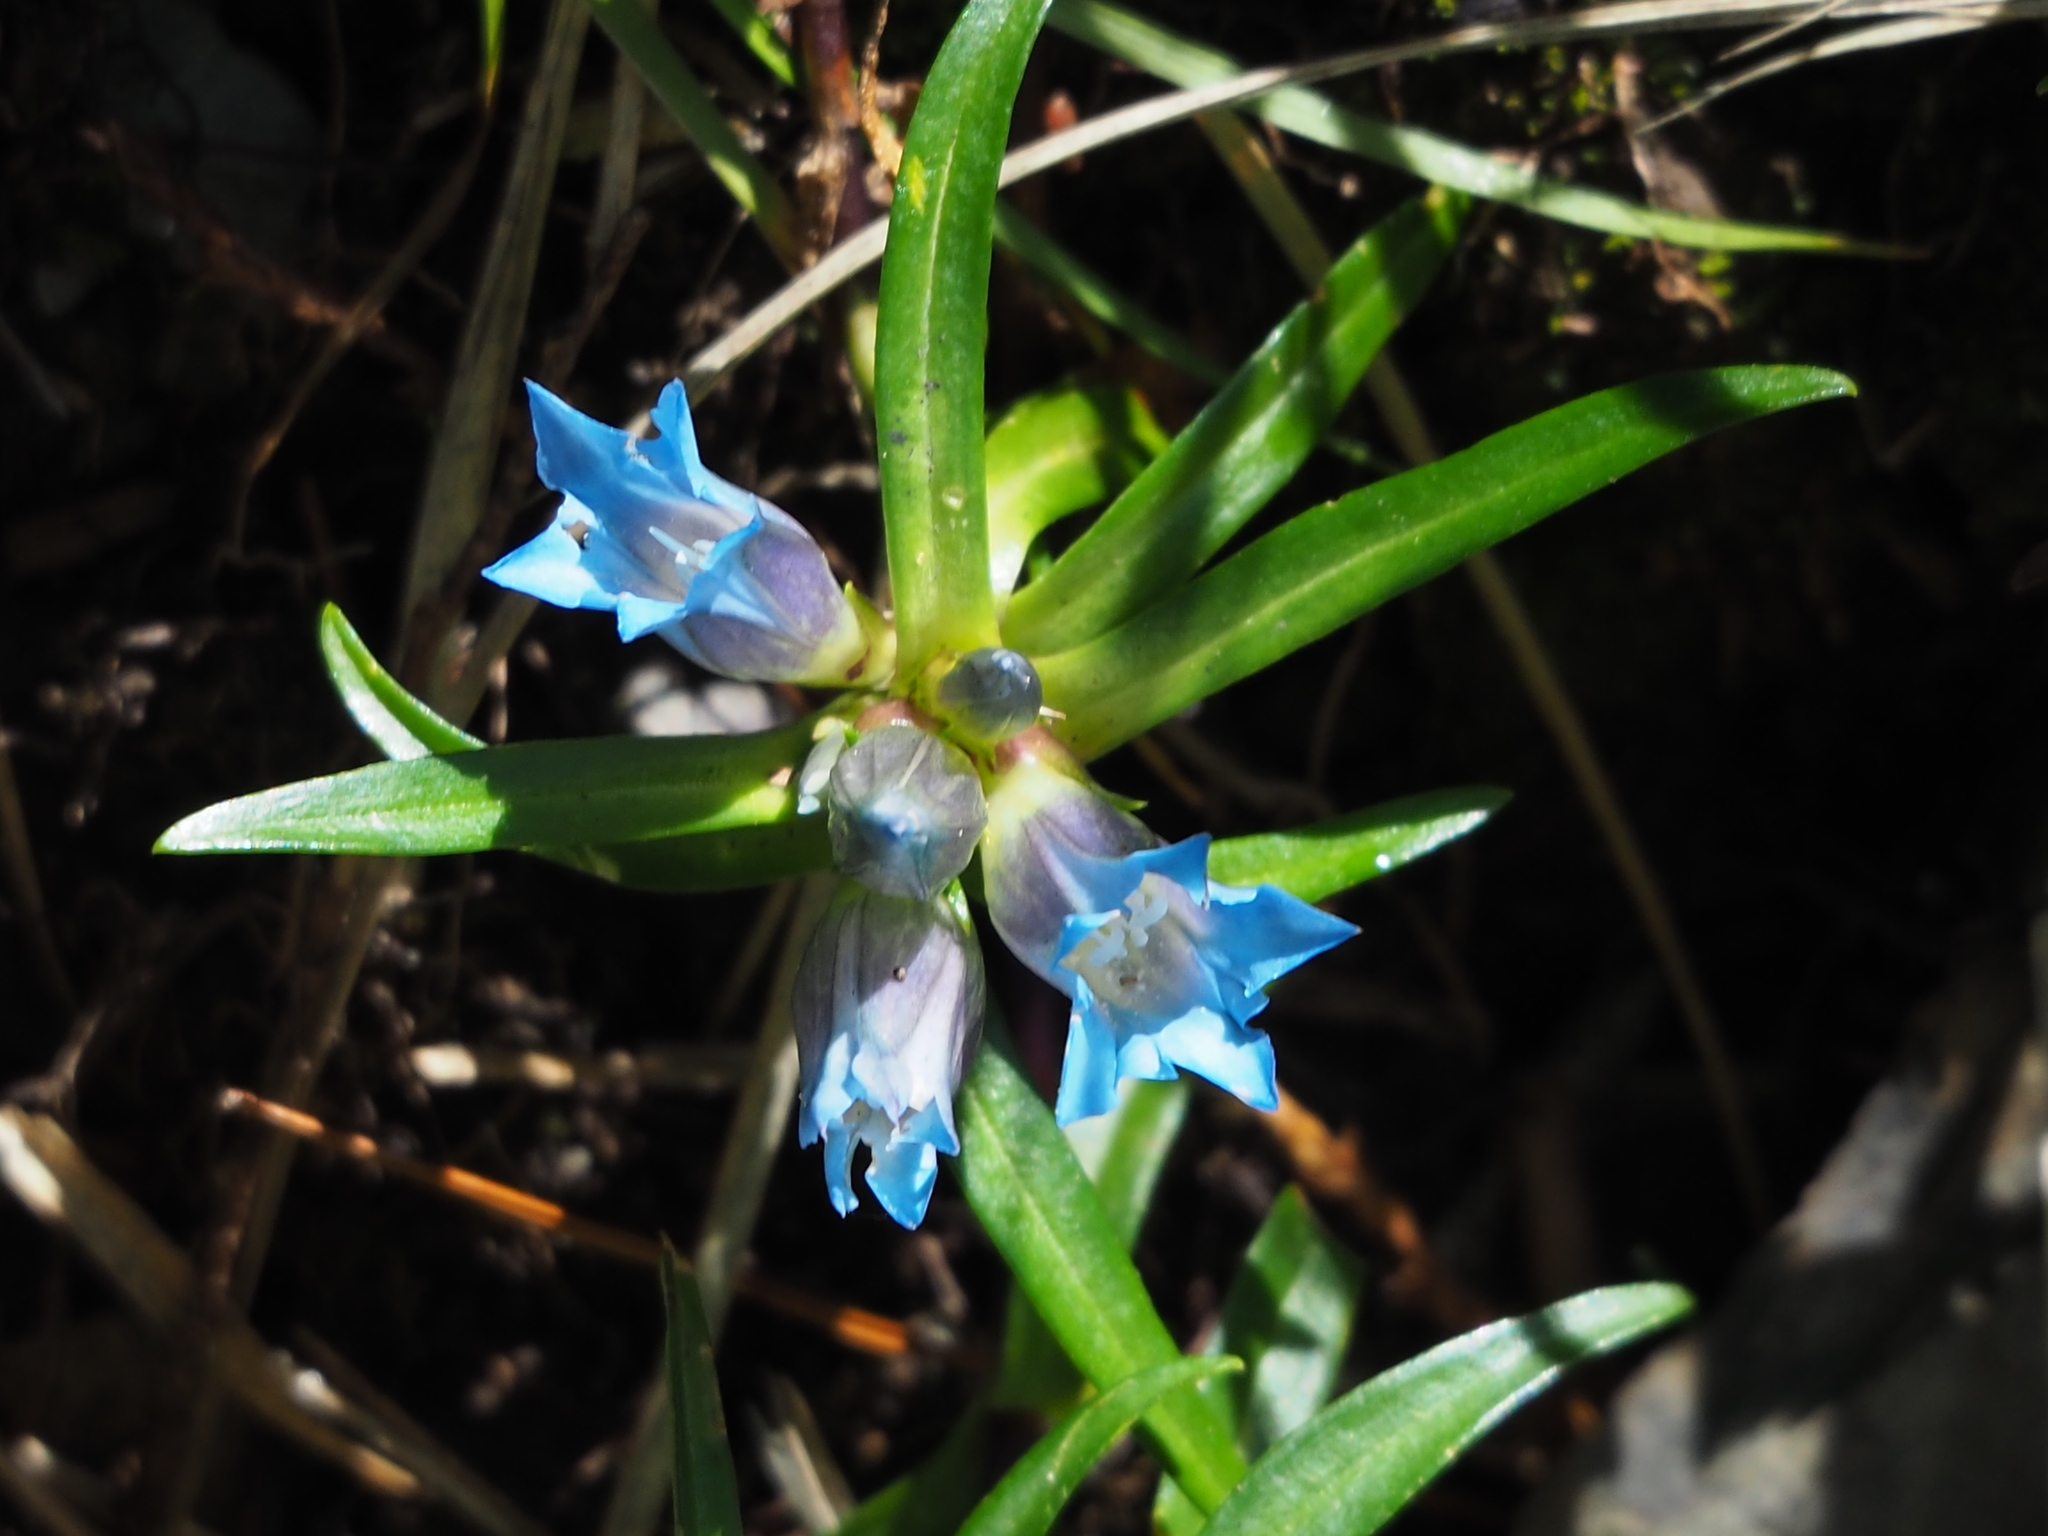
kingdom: Plantae
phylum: Tracheophyta
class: Magnoliopsida
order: Gentianales
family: Gentianaceae
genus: Gentiana
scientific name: Gentiana davidii
